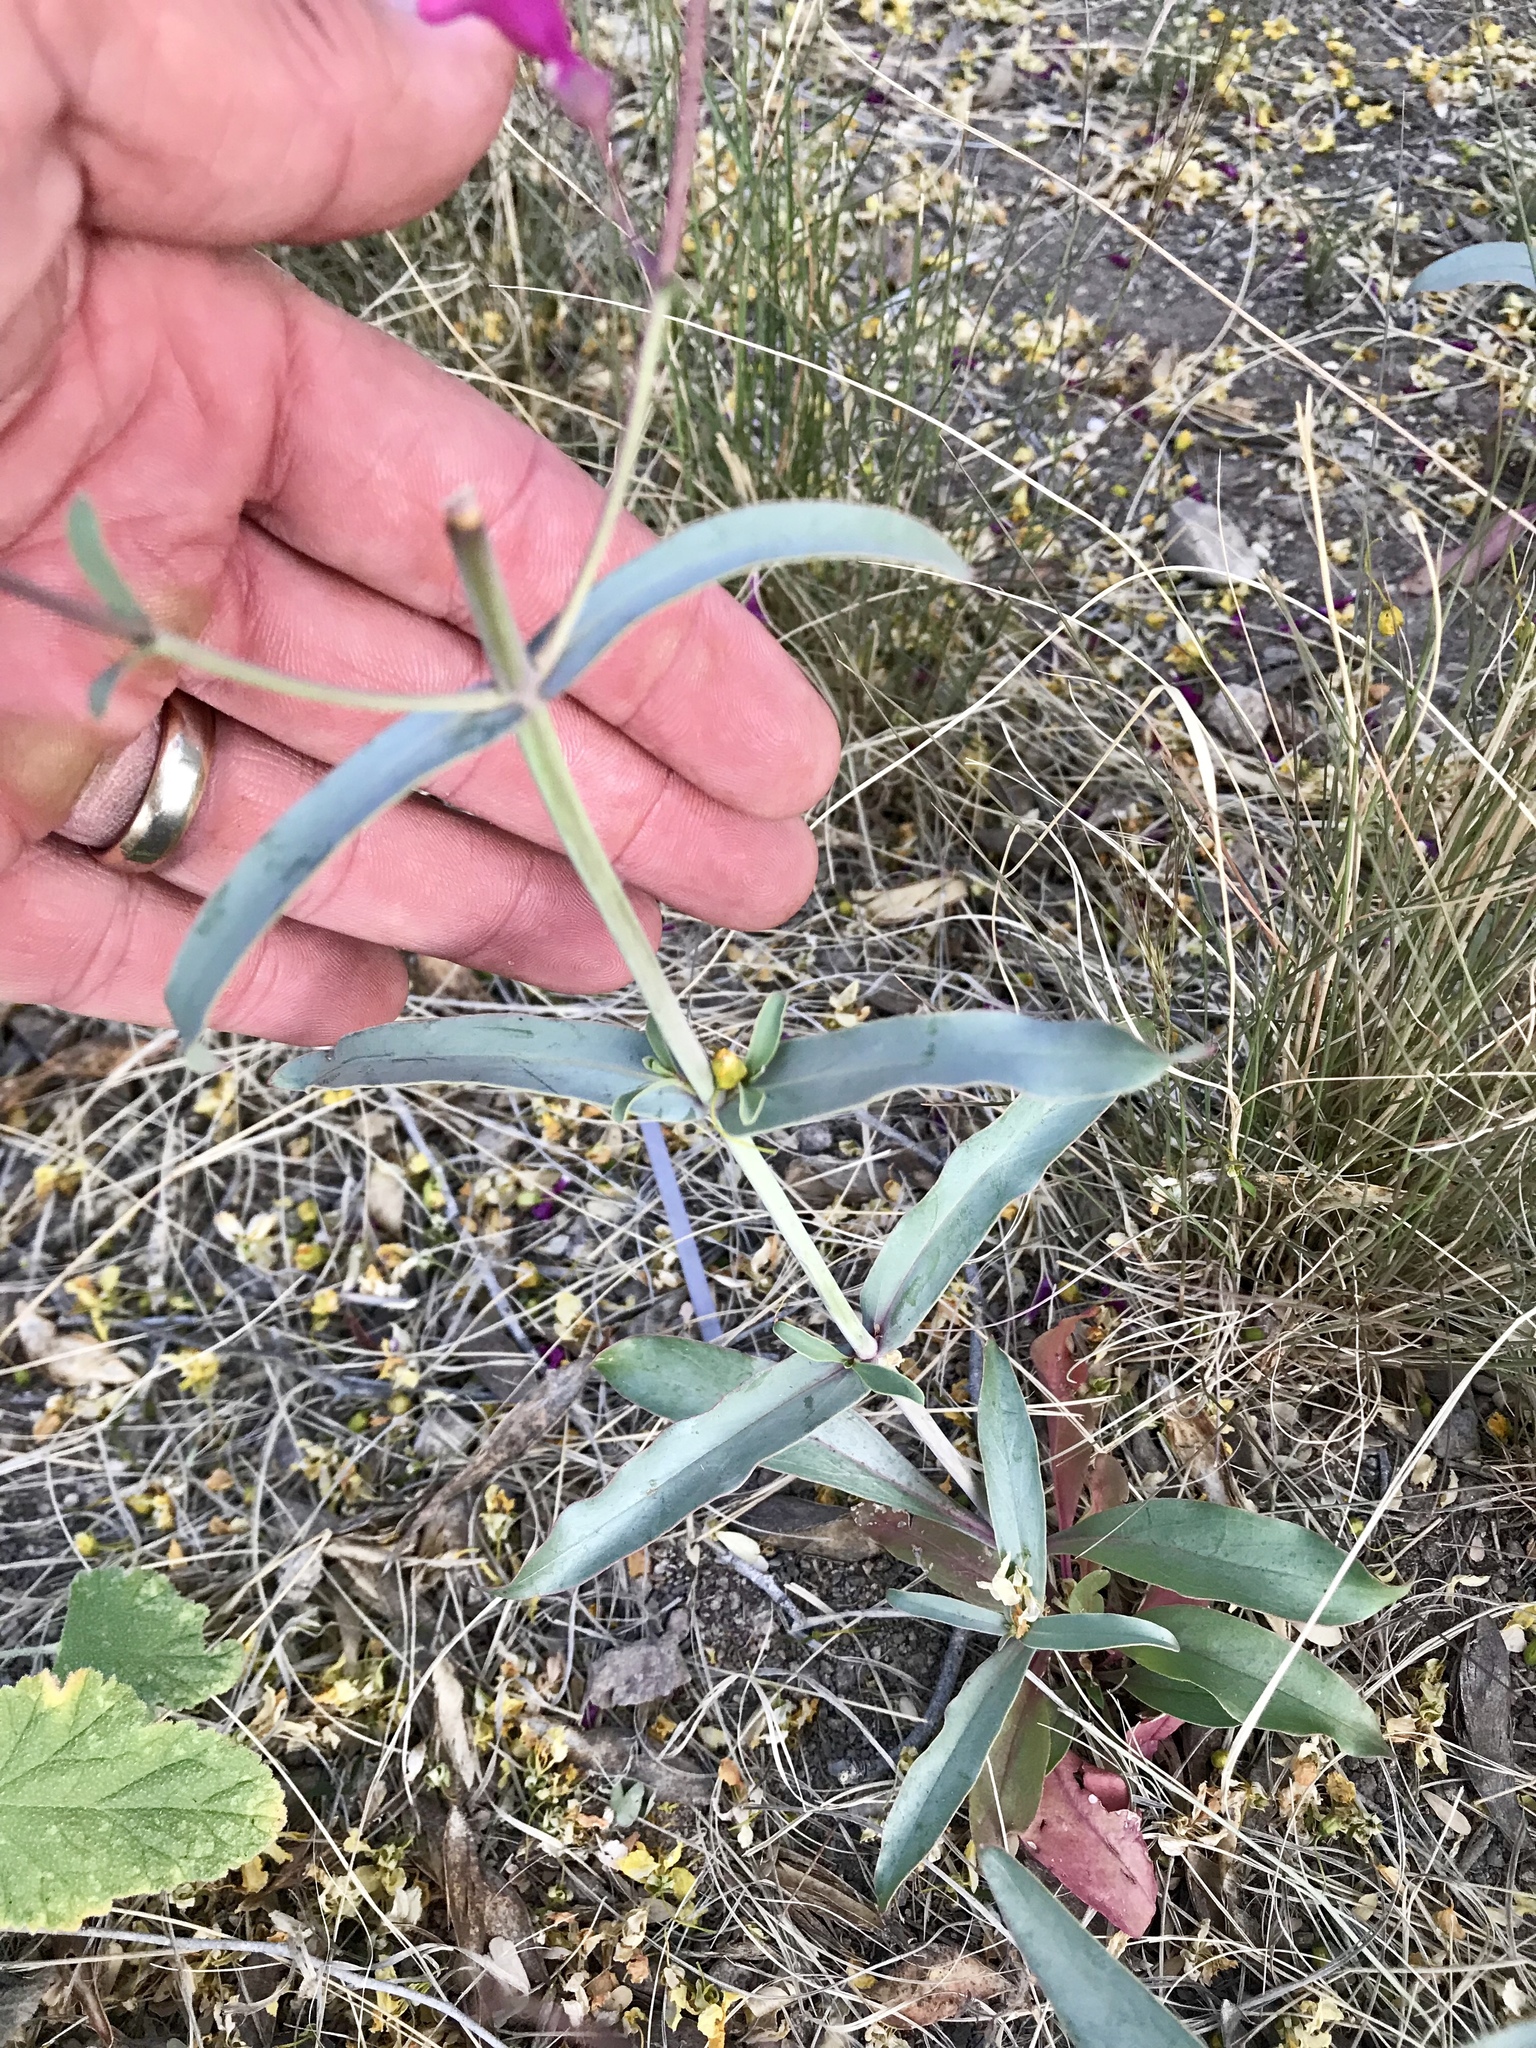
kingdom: Plantae
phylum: Tracheophyta
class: Magnoliopsida
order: Lamiales
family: Plantaginaceae
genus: Penstemon
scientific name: Penstemon parryi
